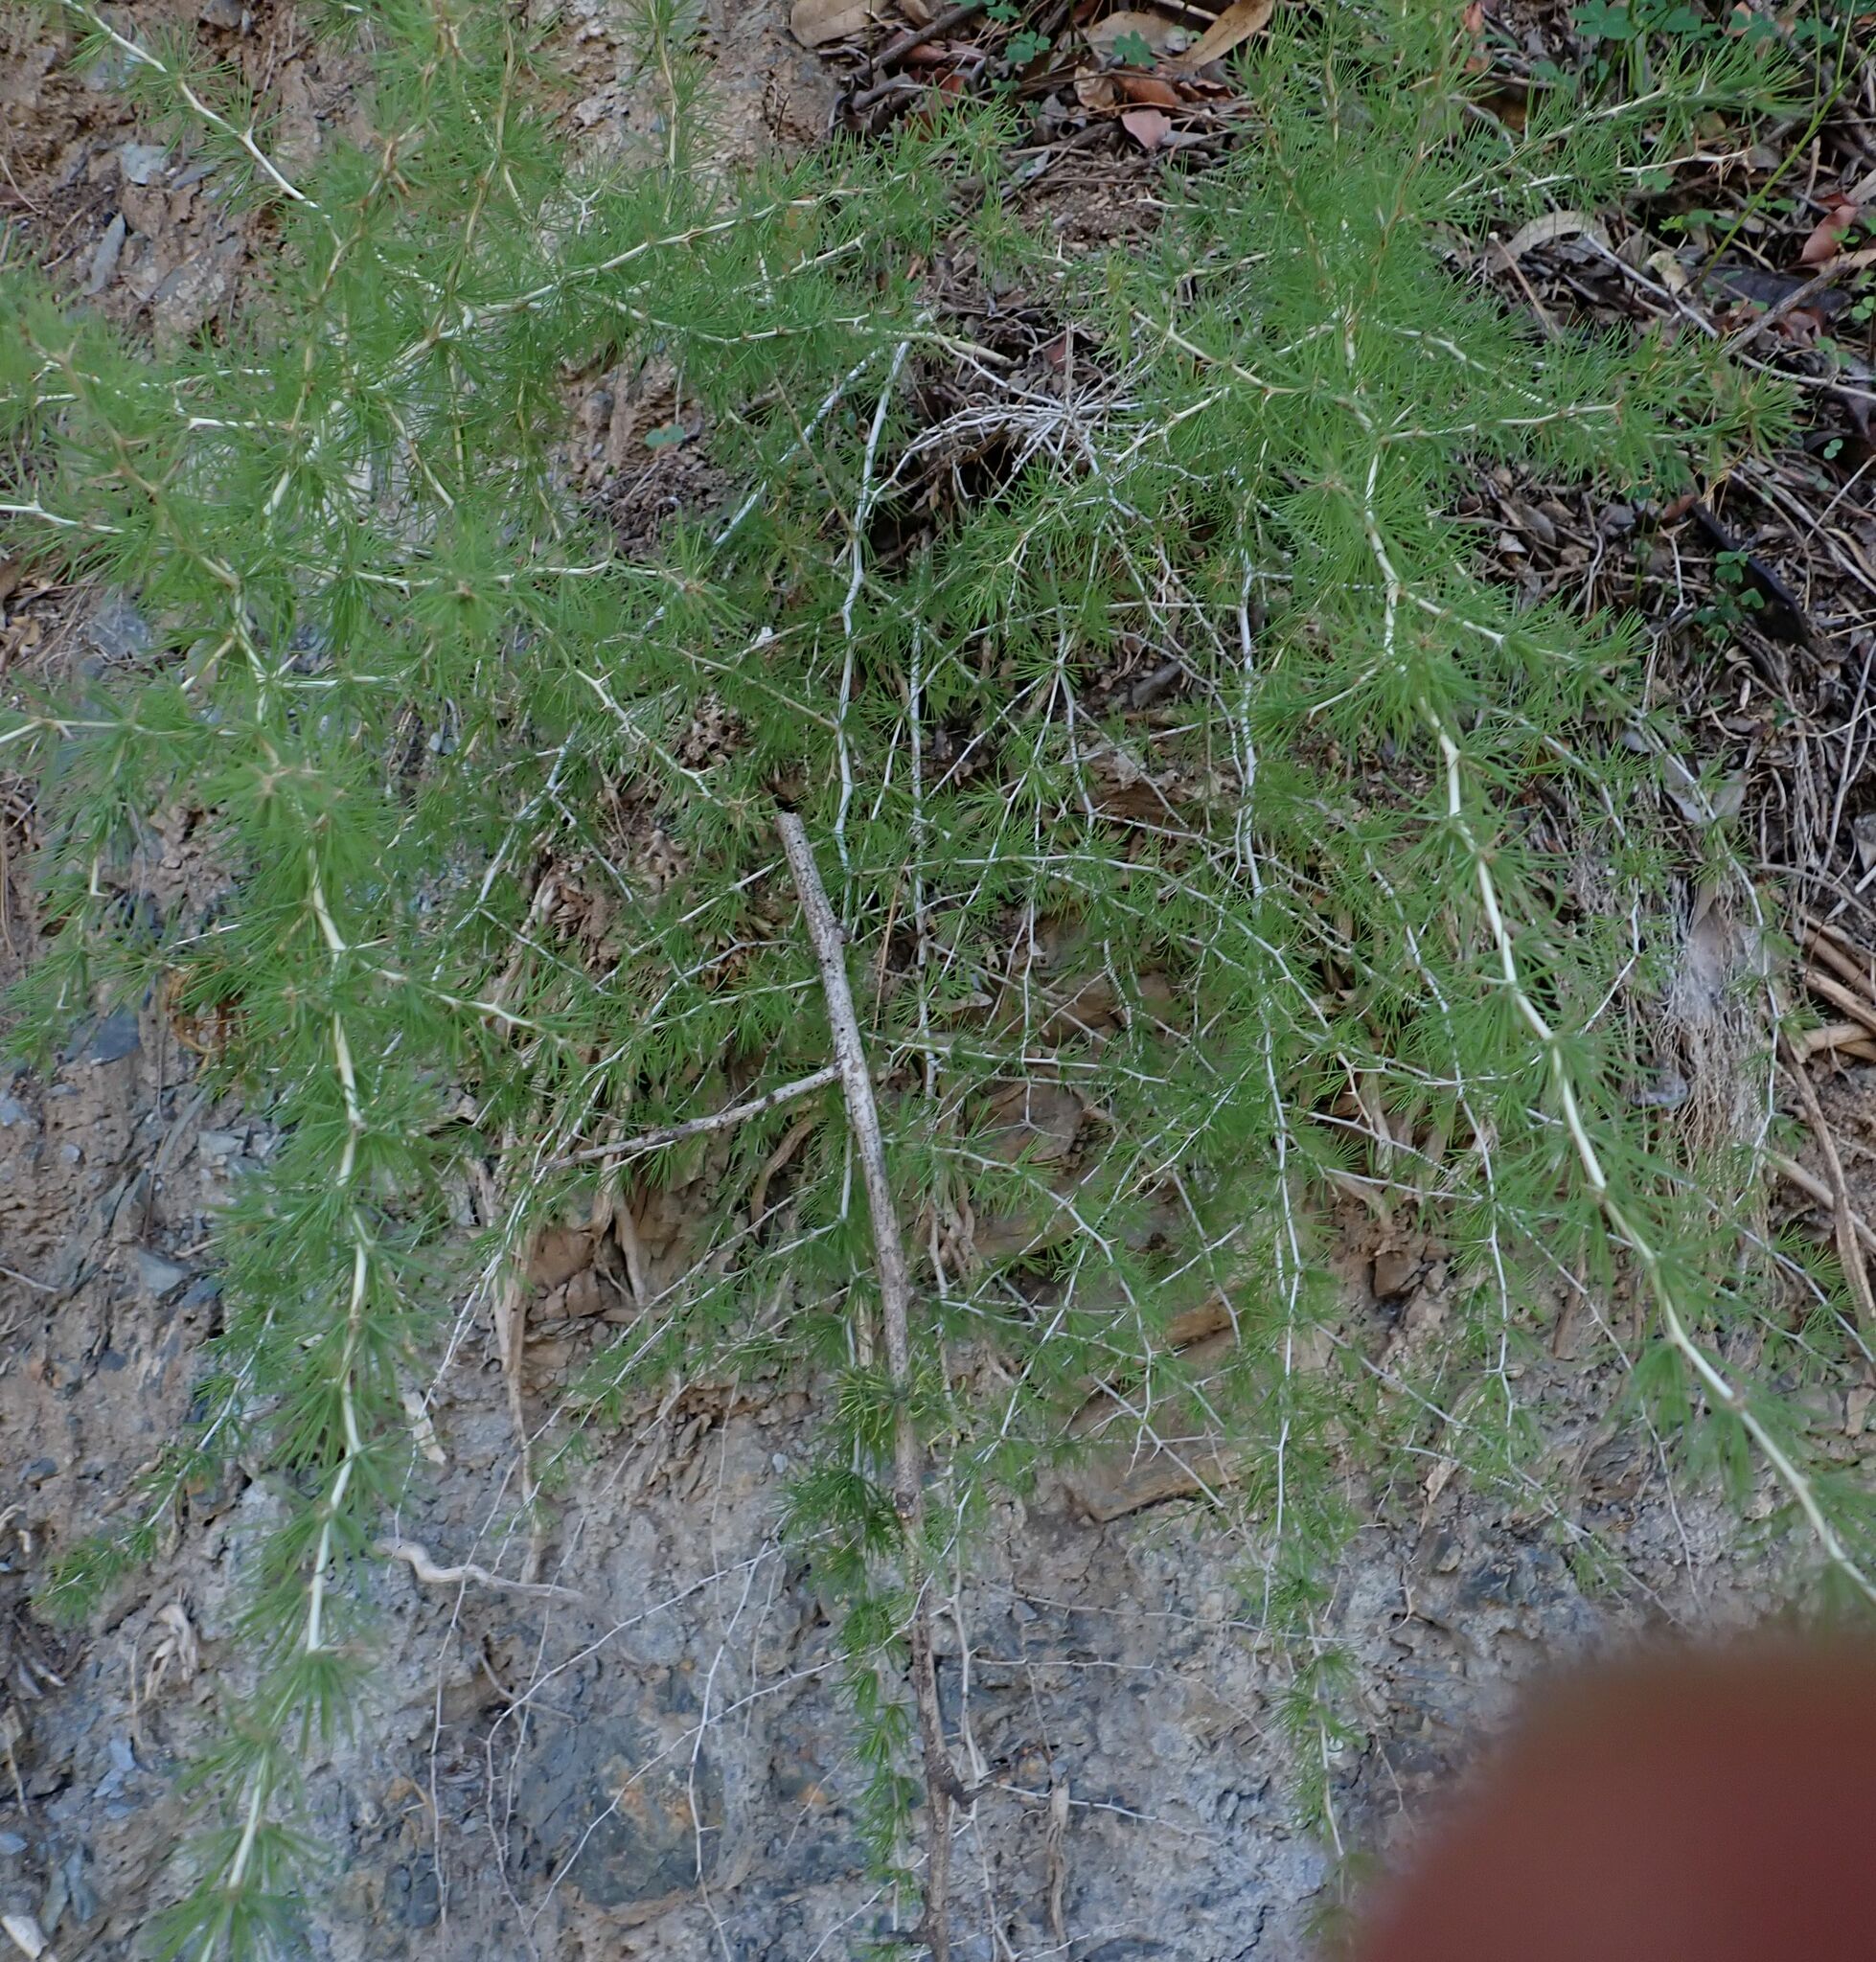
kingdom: Plantae
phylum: Tracheophyta
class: Liliopsida
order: Asparagales
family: Asparagaceae
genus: Asparagus
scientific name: Asparagus albus
